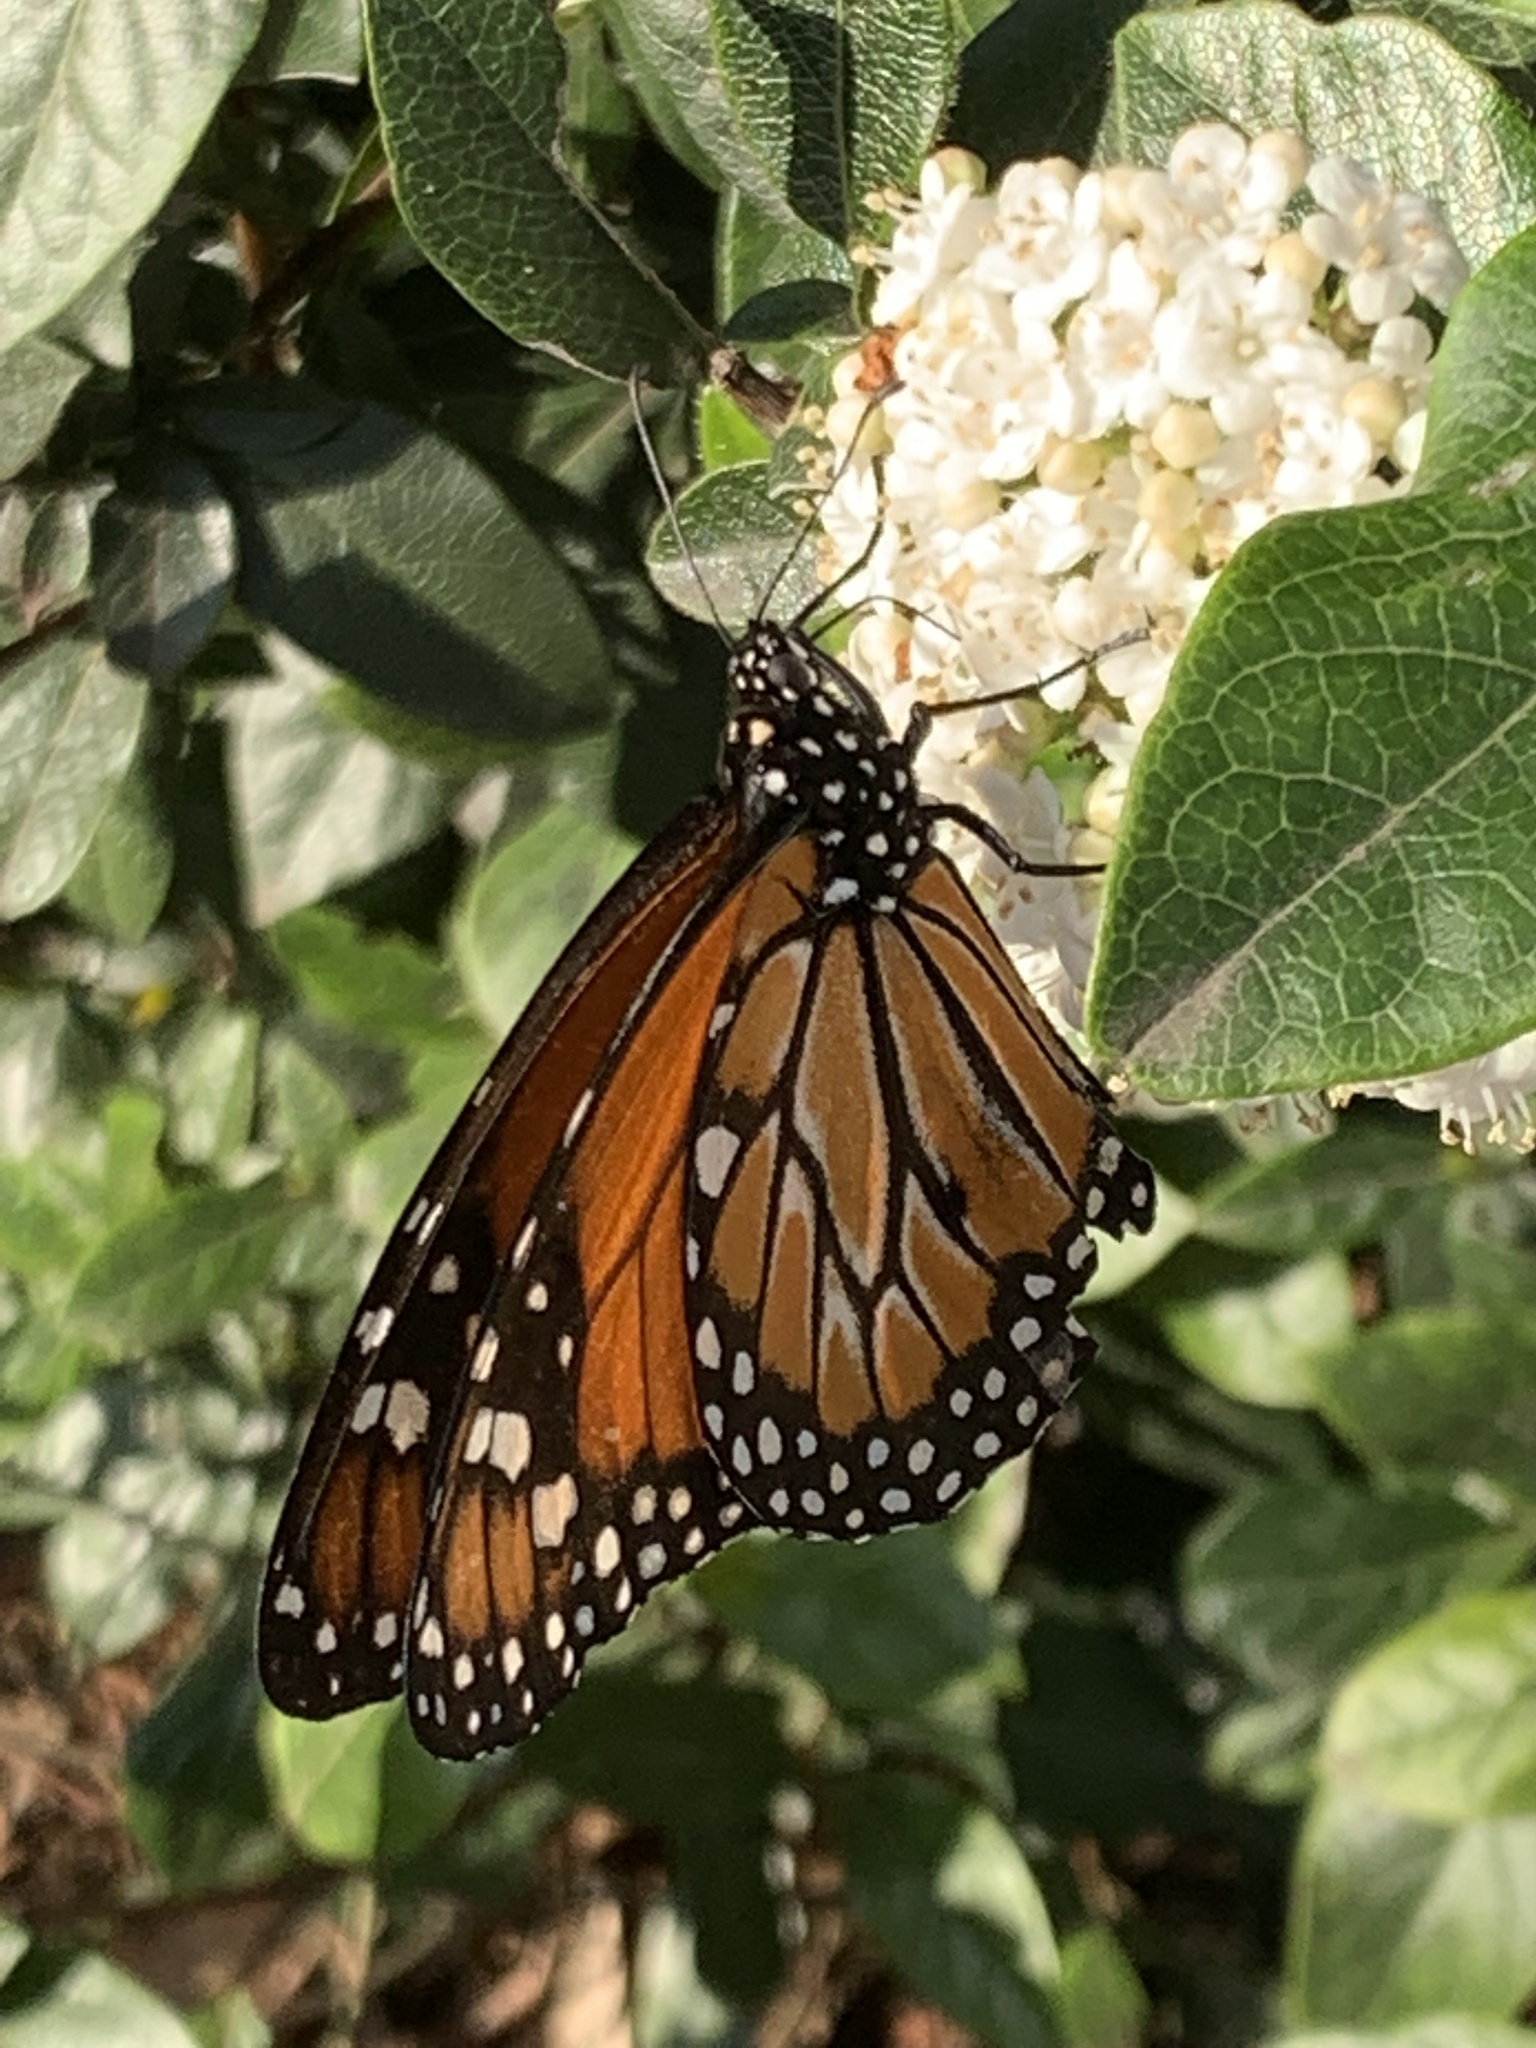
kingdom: Animalia
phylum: Arthropoda
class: Insecta
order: Lepidoptera
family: Nymphalidae
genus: Danaus
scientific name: Danaus erippus
